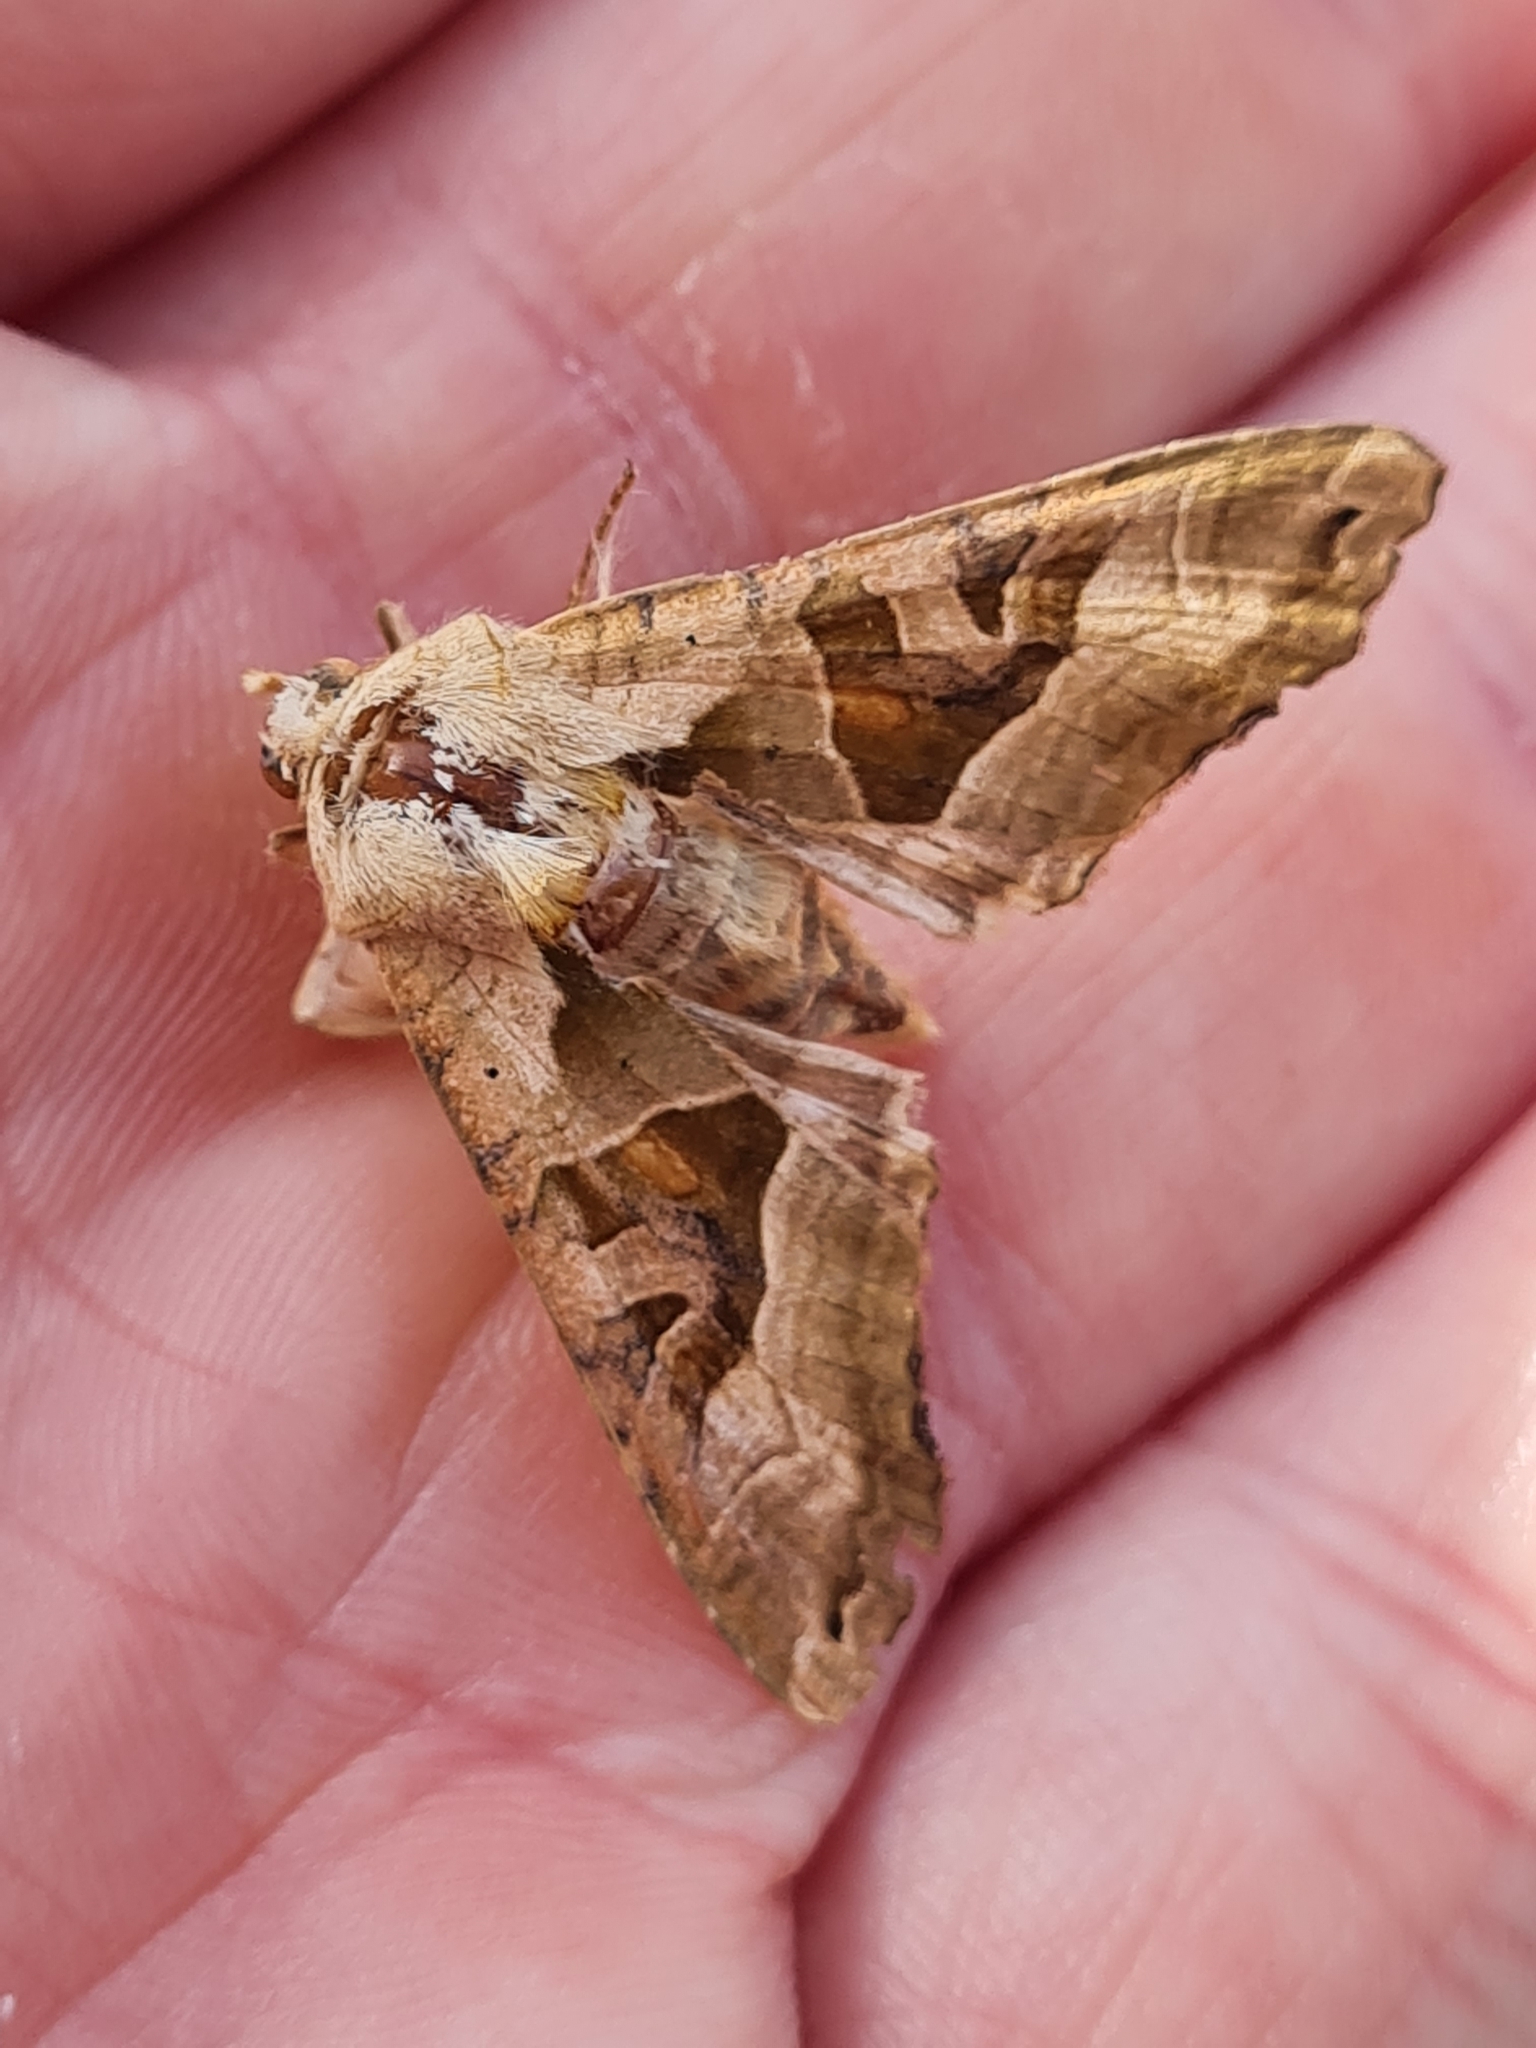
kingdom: Animalia
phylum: Arthropoda
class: Insecta
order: Lepidoptera
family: Noctuidae
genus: Phlogophora
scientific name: Phlogophora meticulosa
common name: Angle shades
